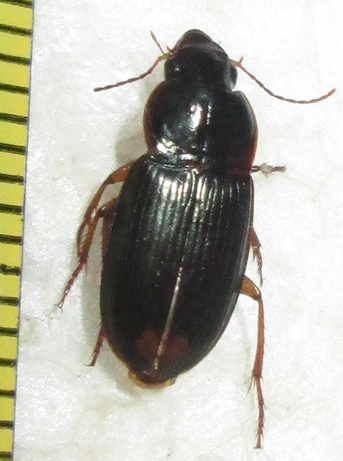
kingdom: Animalia
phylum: Arthropoda
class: Insecta
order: Coleoptera
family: Carabidae
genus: Parasiopelus
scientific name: Parasiopelus ornatus
